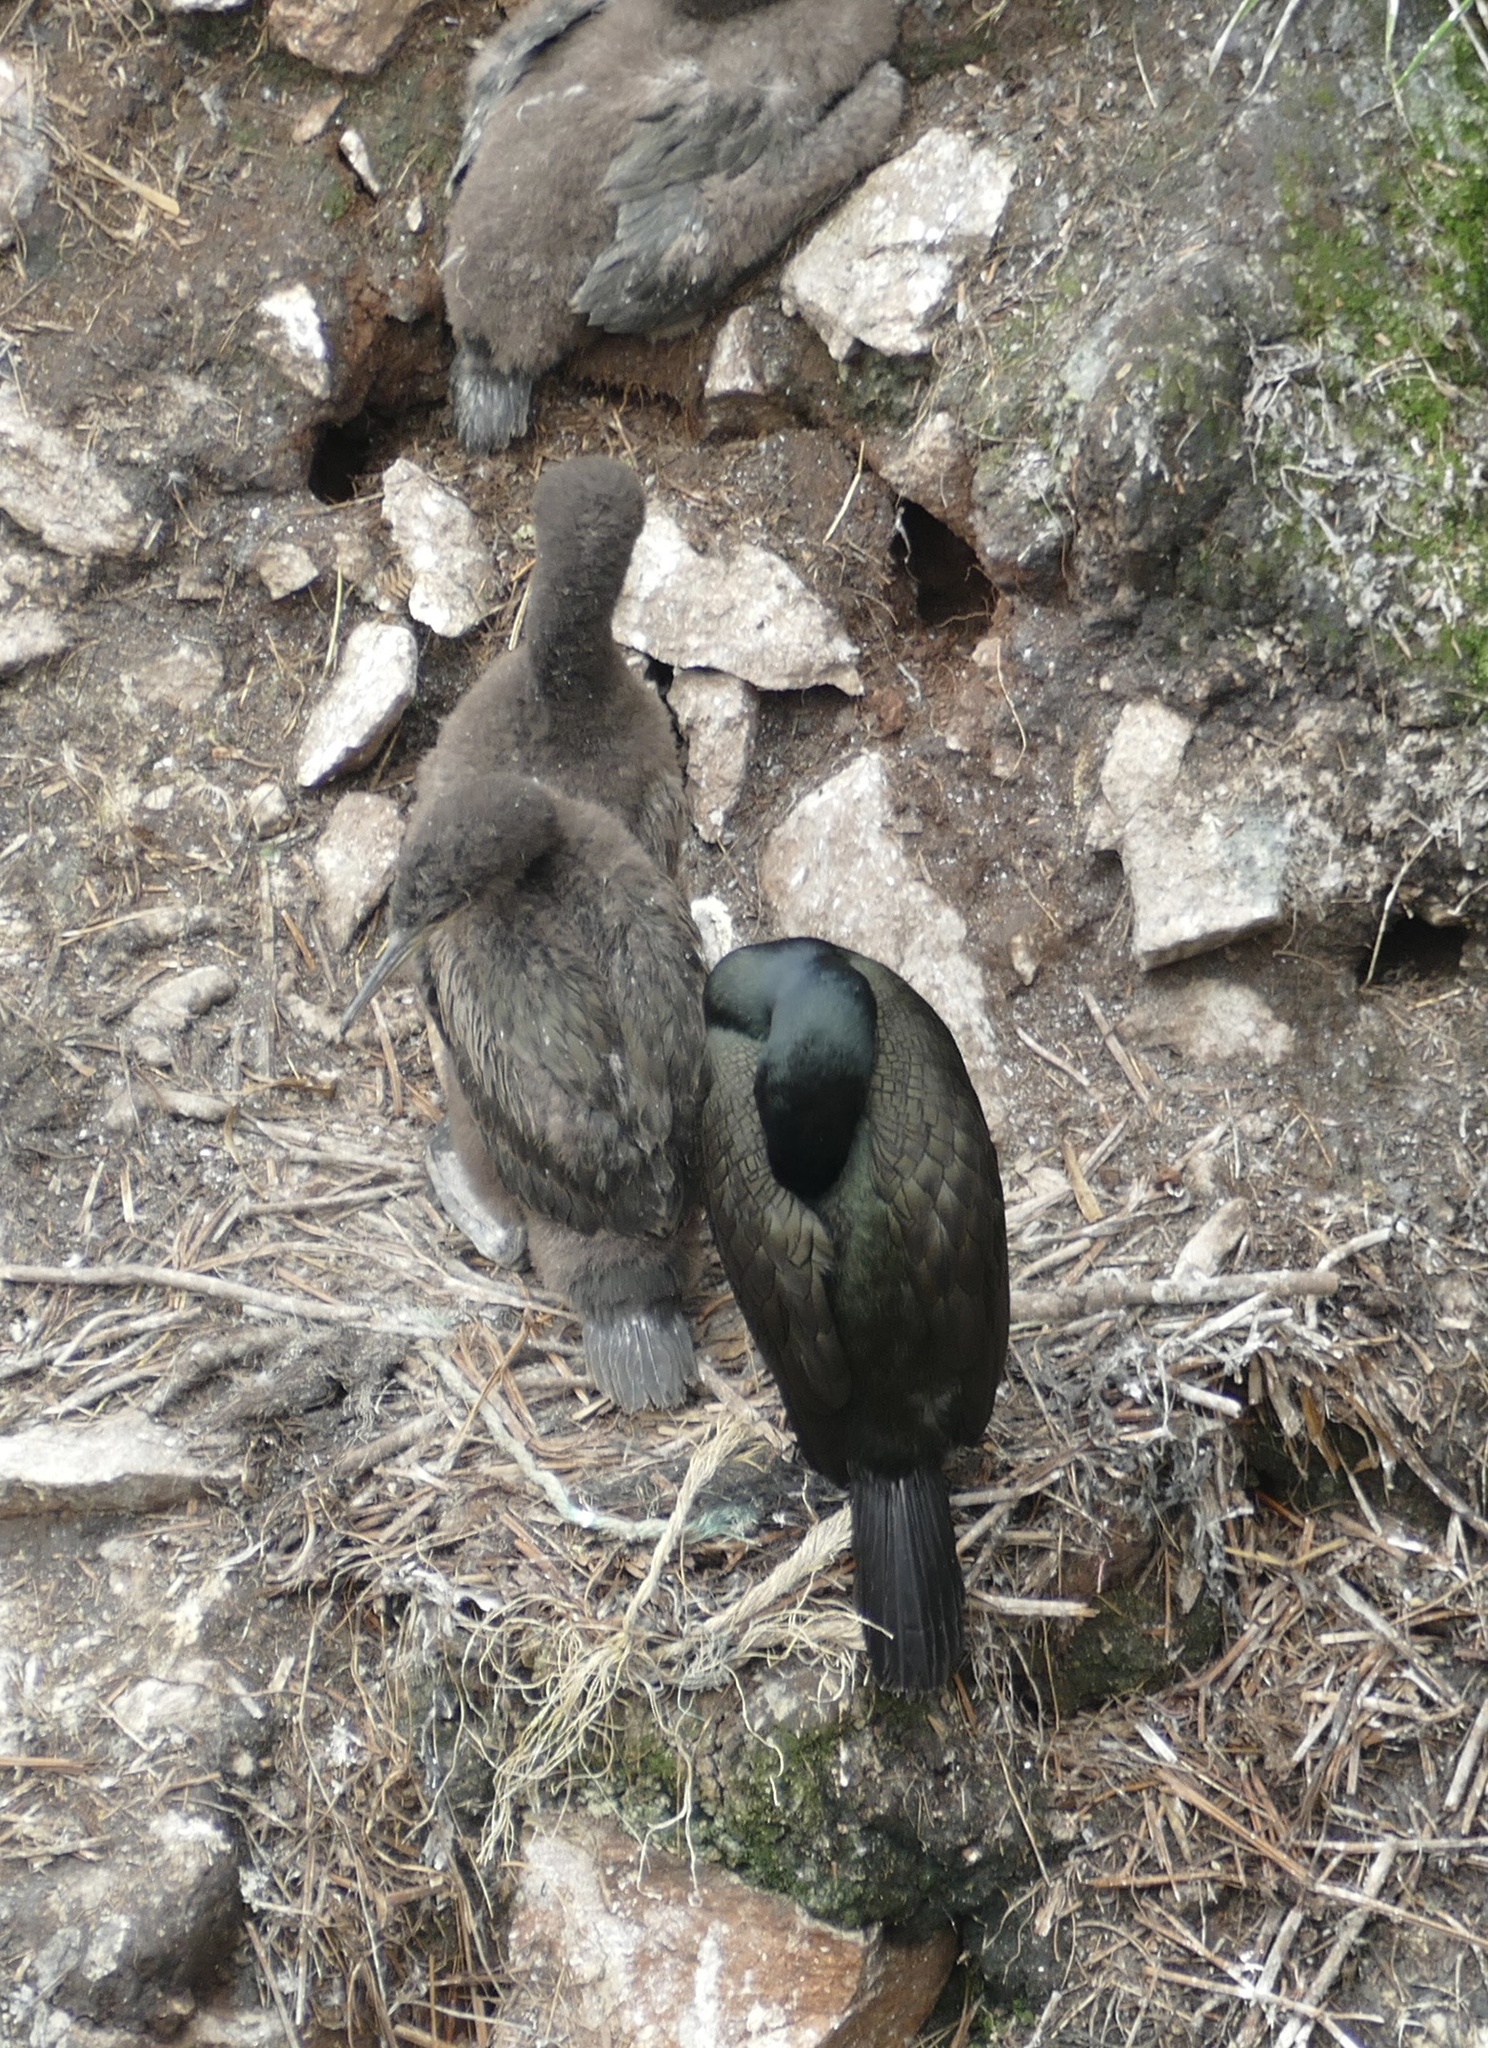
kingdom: Animalia
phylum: Chordata
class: Aves
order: Suliformes
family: Phalacrocoracidae
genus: Phalacrocorax
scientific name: Phalacrocorax aristotelis
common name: European shag
